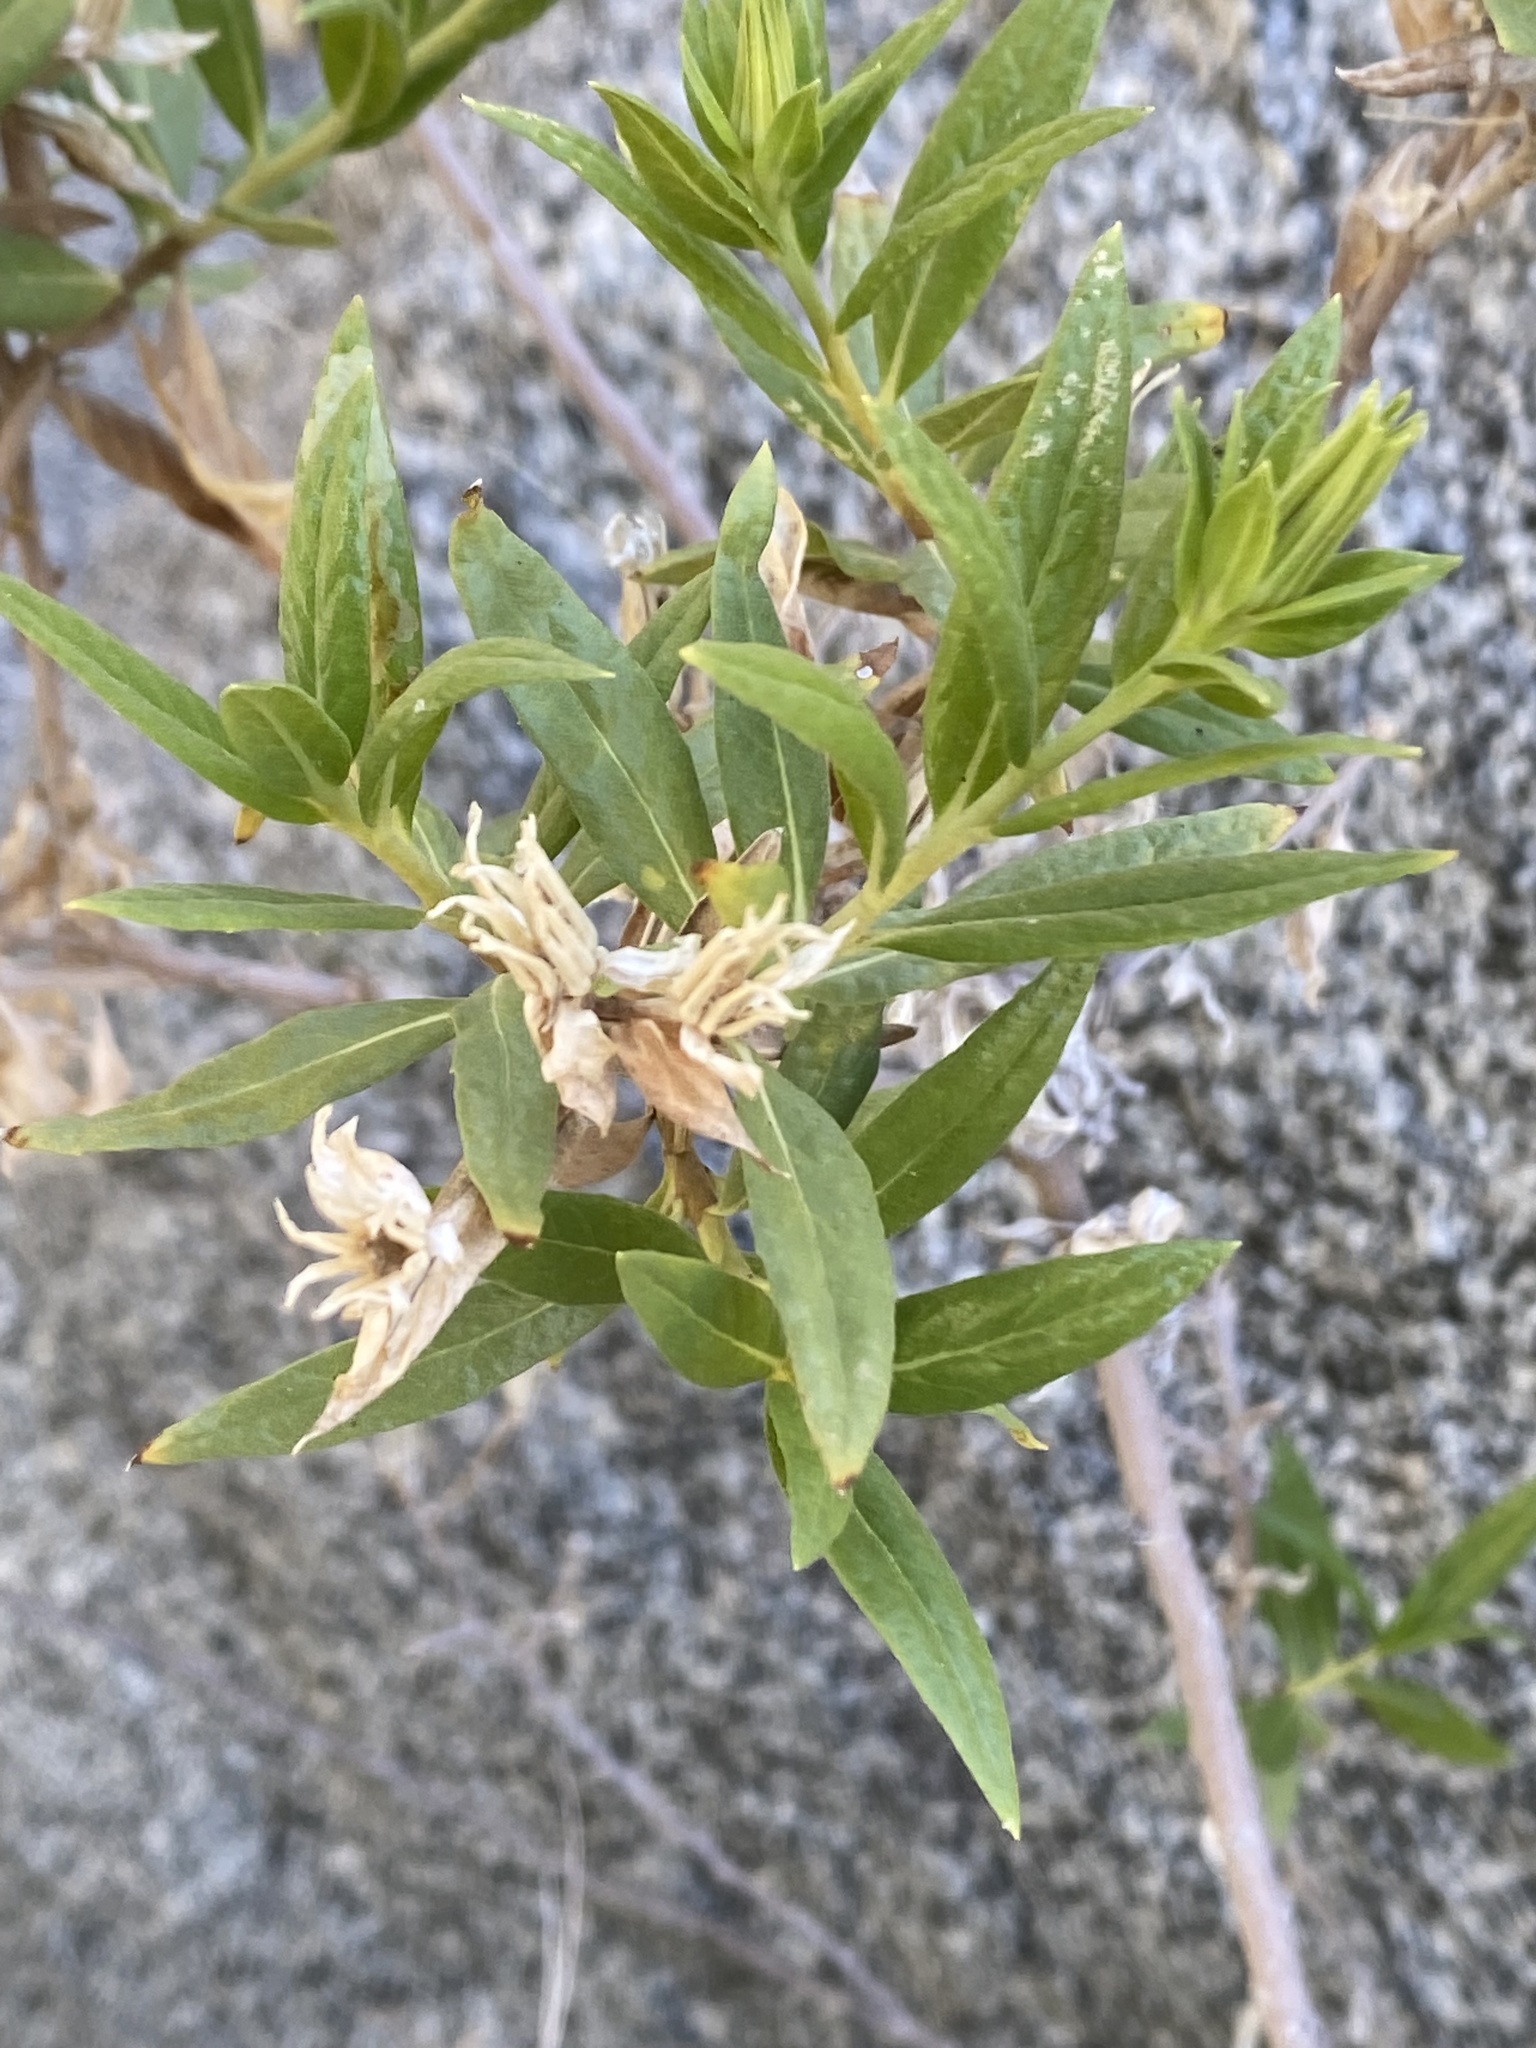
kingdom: Plantae
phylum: Tracheophyta
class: Magnoliopsida
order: Asterales
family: Asteraceae
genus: Trixis
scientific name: Trixis californica
